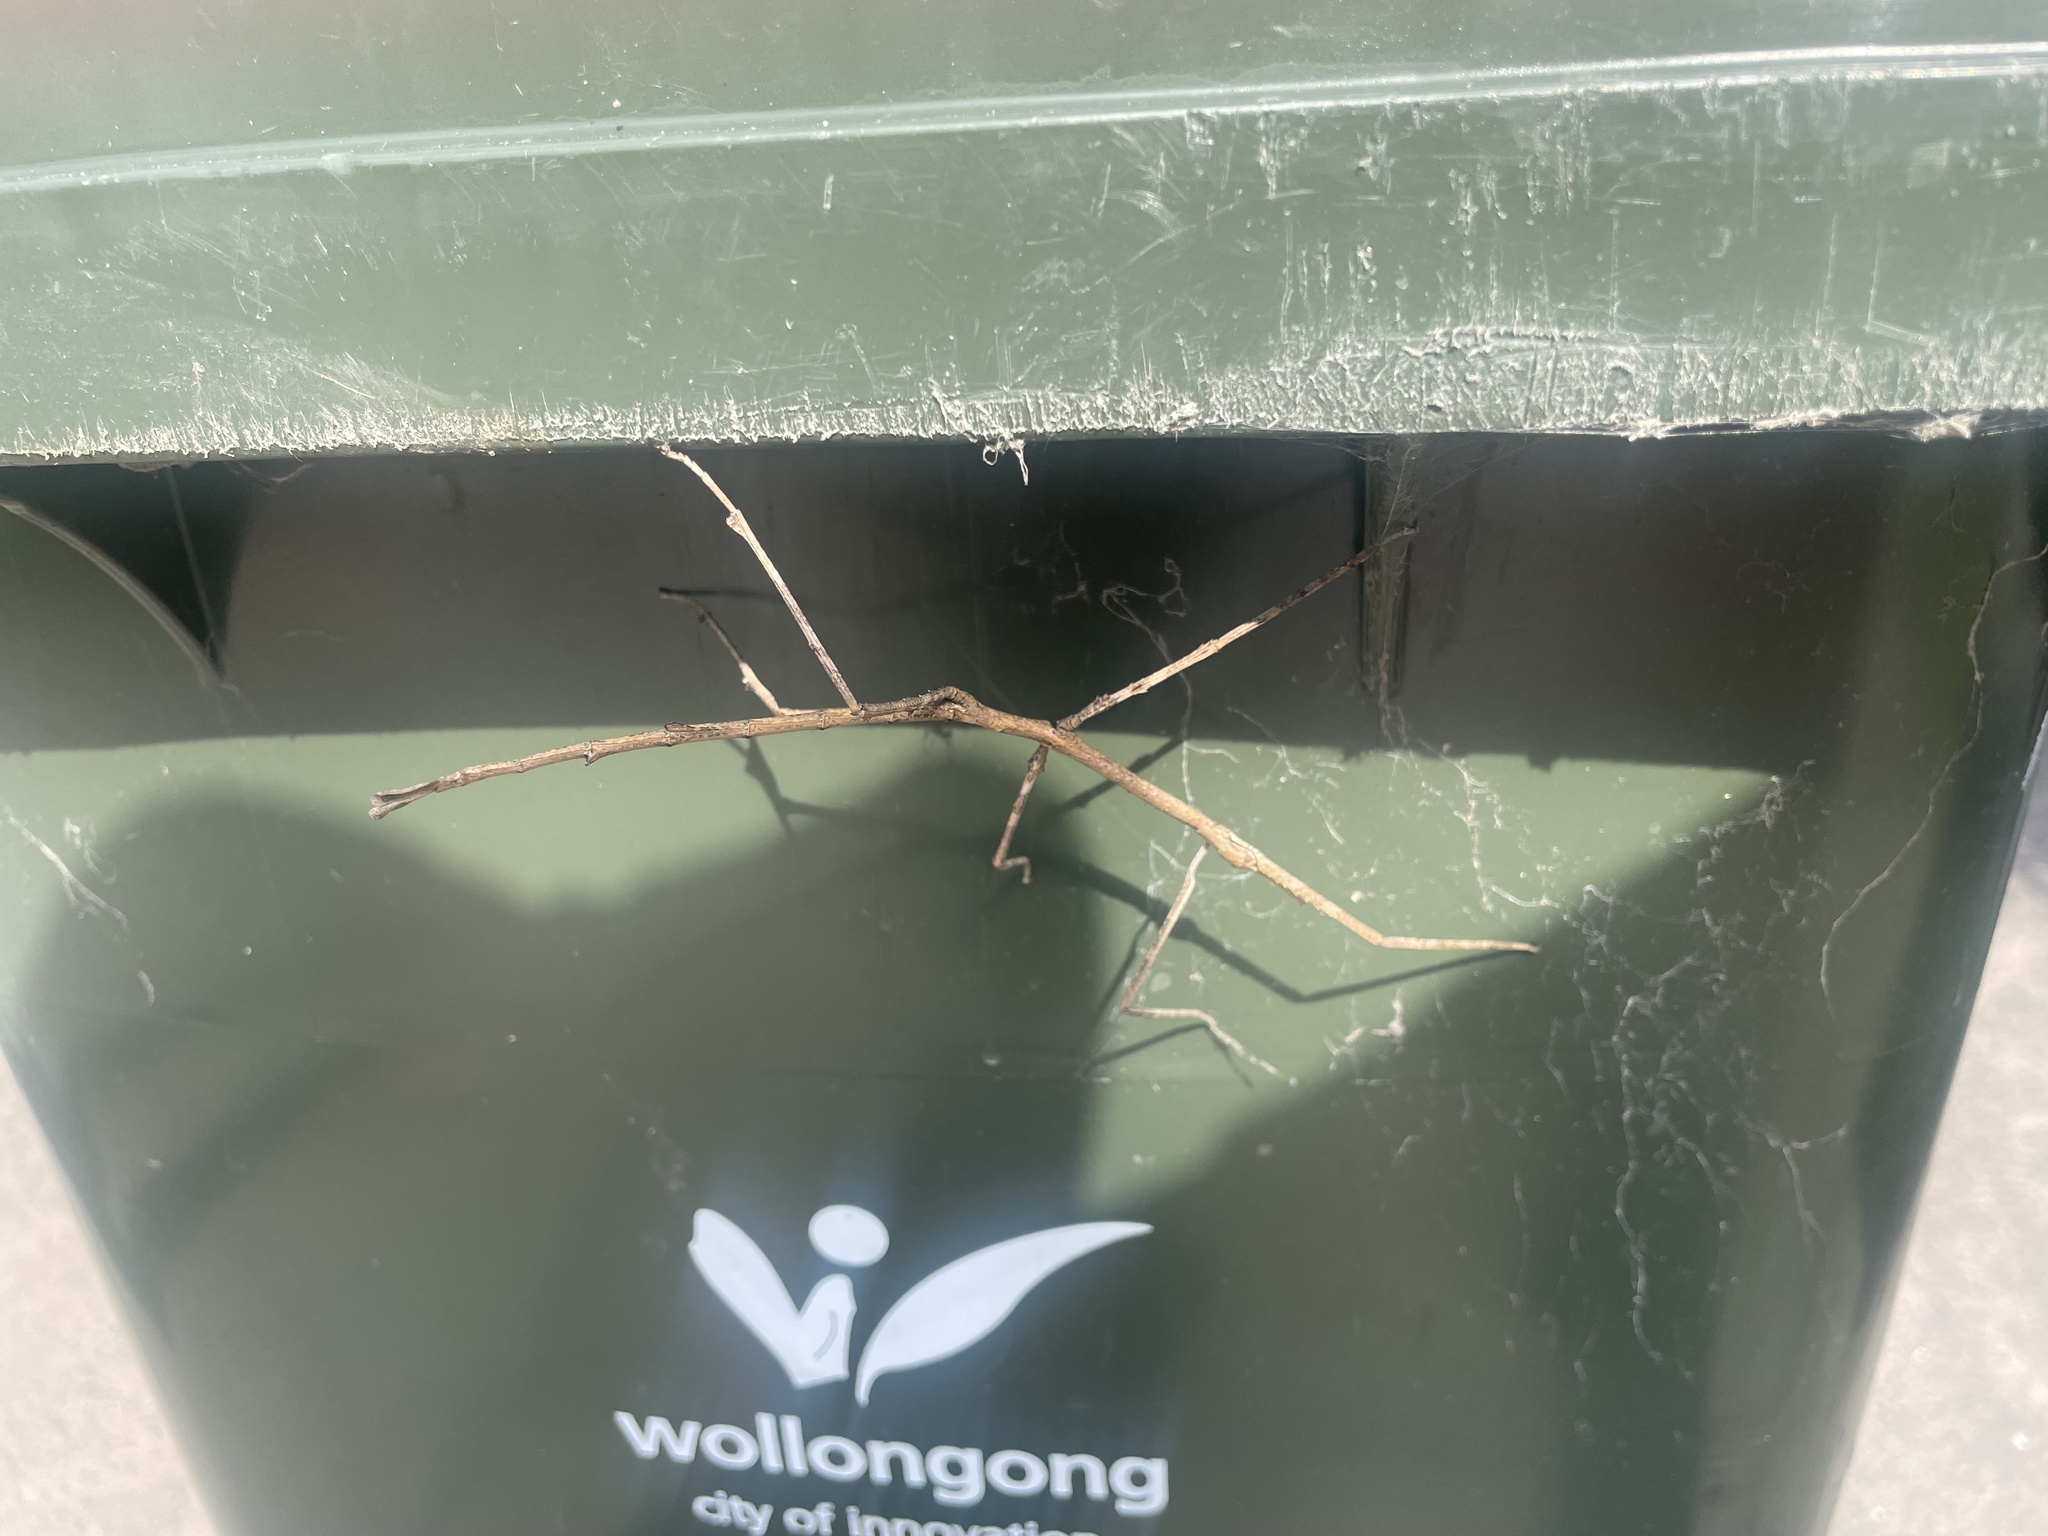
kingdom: Animalia
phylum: Arthropoda
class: Insecta
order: Phasmida
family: Phasmatidae
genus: Ctenomorpha
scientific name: Ctenomorpha marginipennis
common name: Margined-winged stick-insect
